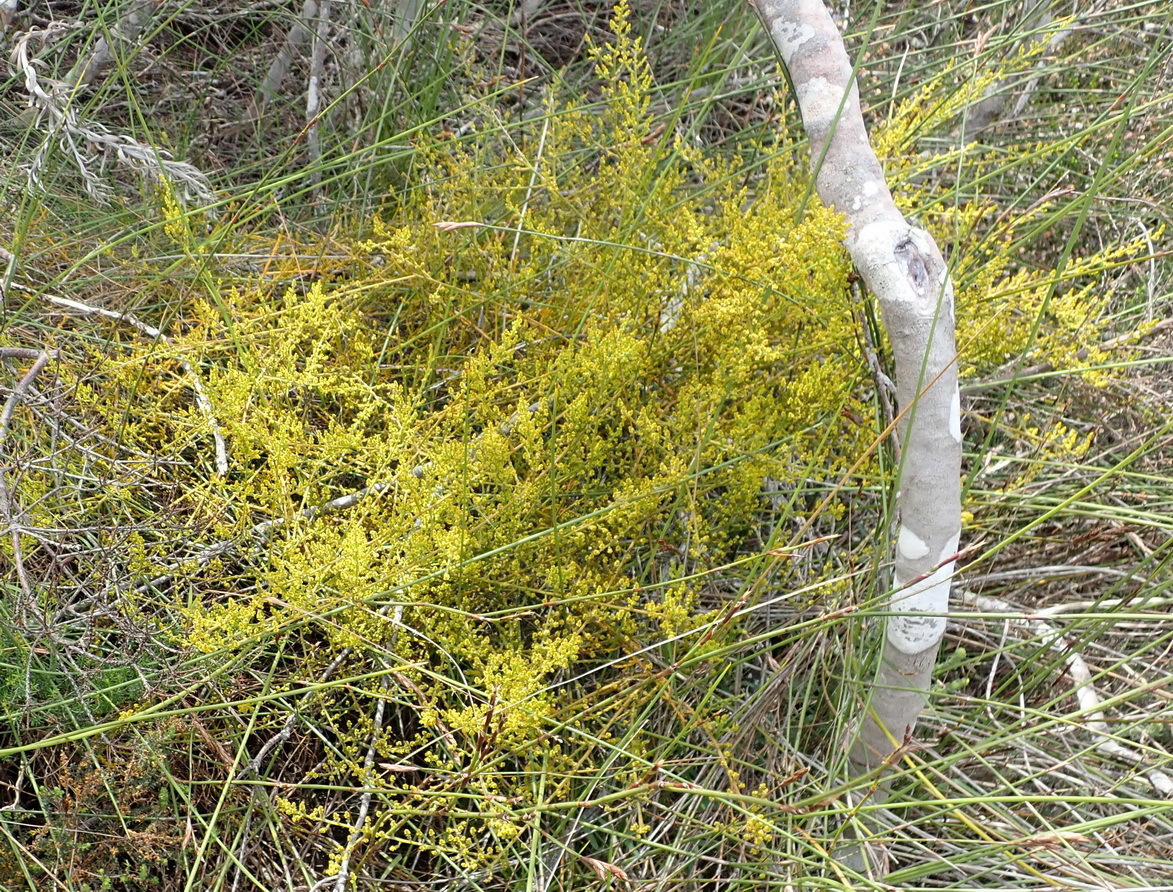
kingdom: Plantae
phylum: Tracheophyta
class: Magnoliopsida
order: Santalales
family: Thesiaceae
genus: Thesium
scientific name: Thesium fragile
